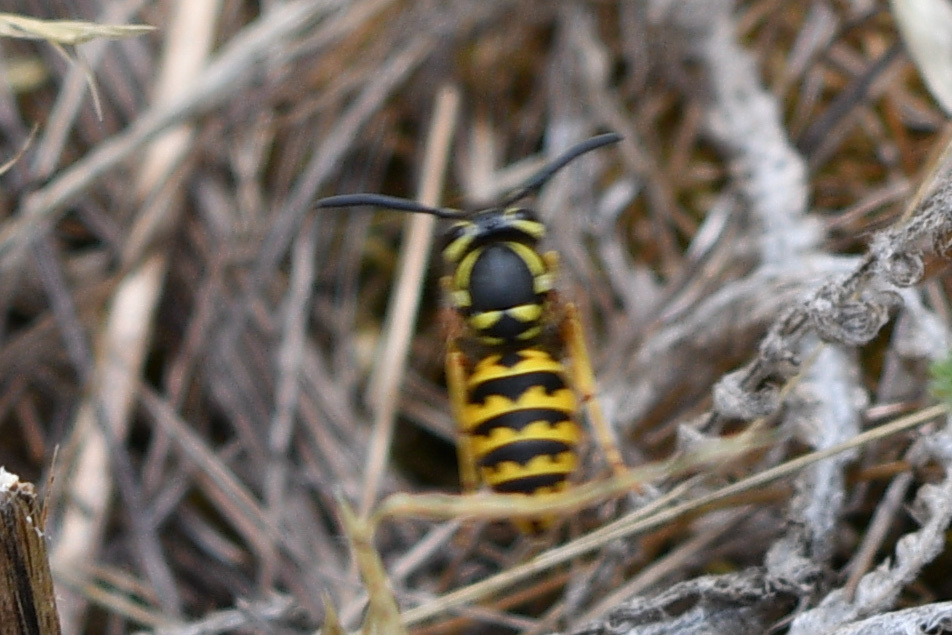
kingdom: Animalia
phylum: Arthropoda
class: Insecta
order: Hymenoptera
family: Vespidae
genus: Vespula
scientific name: Vespula pensylvanica
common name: Western yellowjacket
